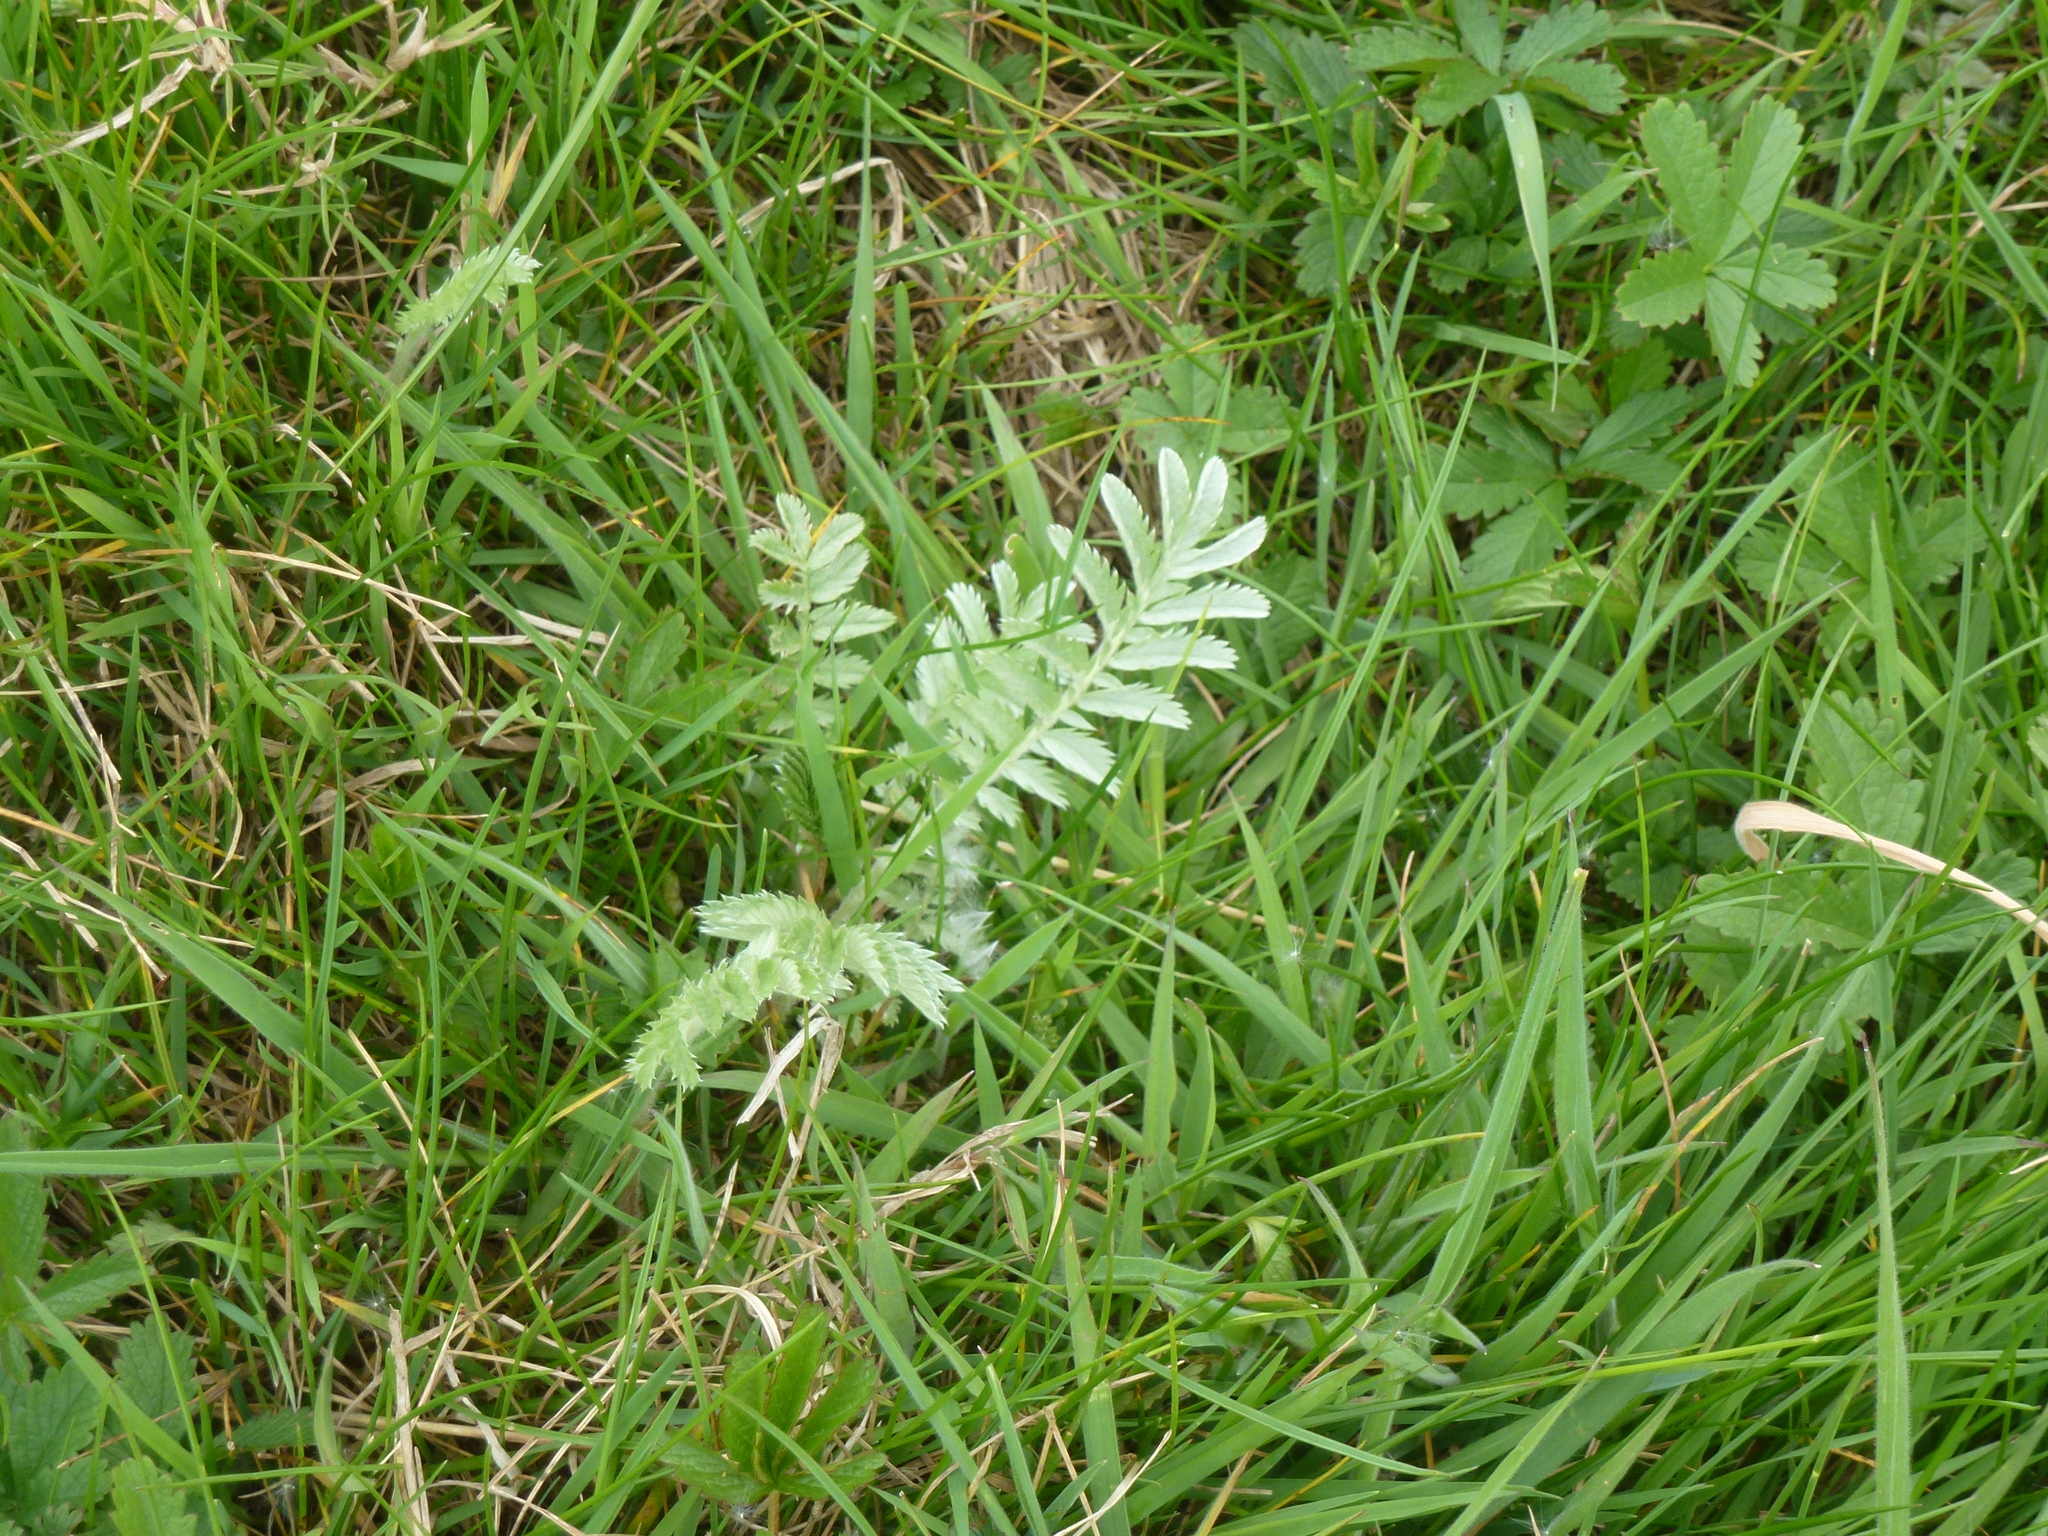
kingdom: Plantae
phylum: Tracheophyta
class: Magnoliopsida
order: Rosales
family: Rosaceae
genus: Argentina
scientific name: Argentina anserina
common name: Common silverweed
